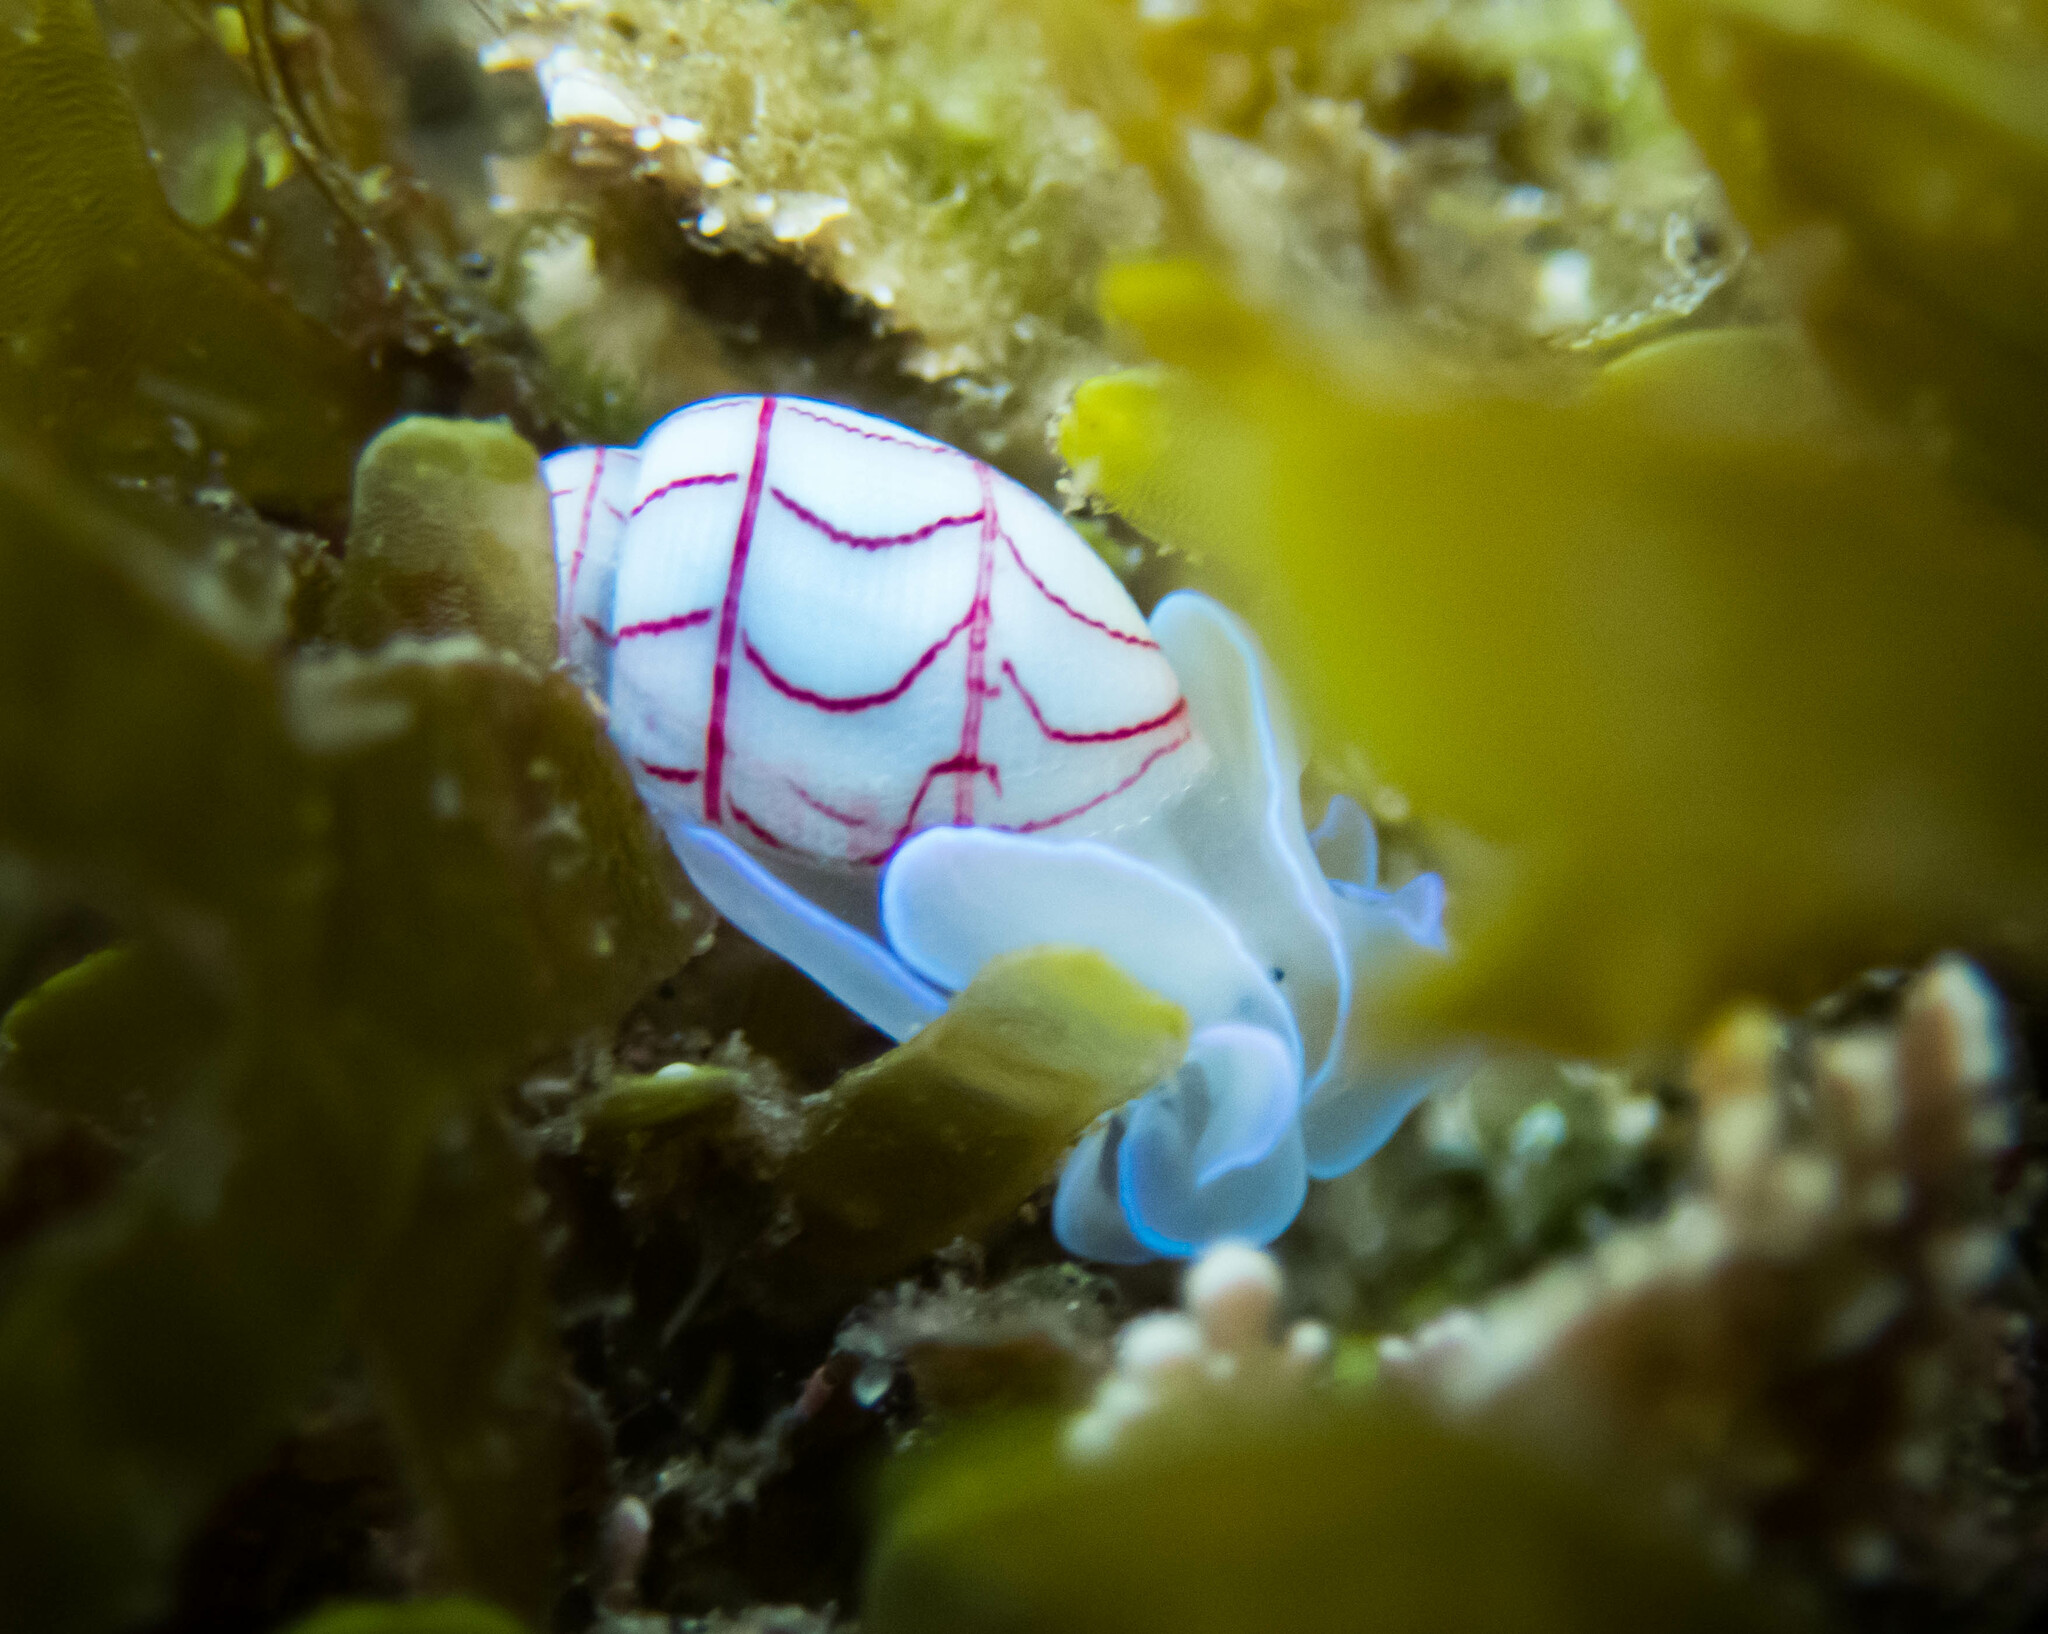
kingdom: Animalia
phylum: Mollusca
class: Gastropoda
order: Cephalaspidea
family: Aplustridae
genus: Bullina
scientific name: Bullina lineata
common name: Lined bubble snail
